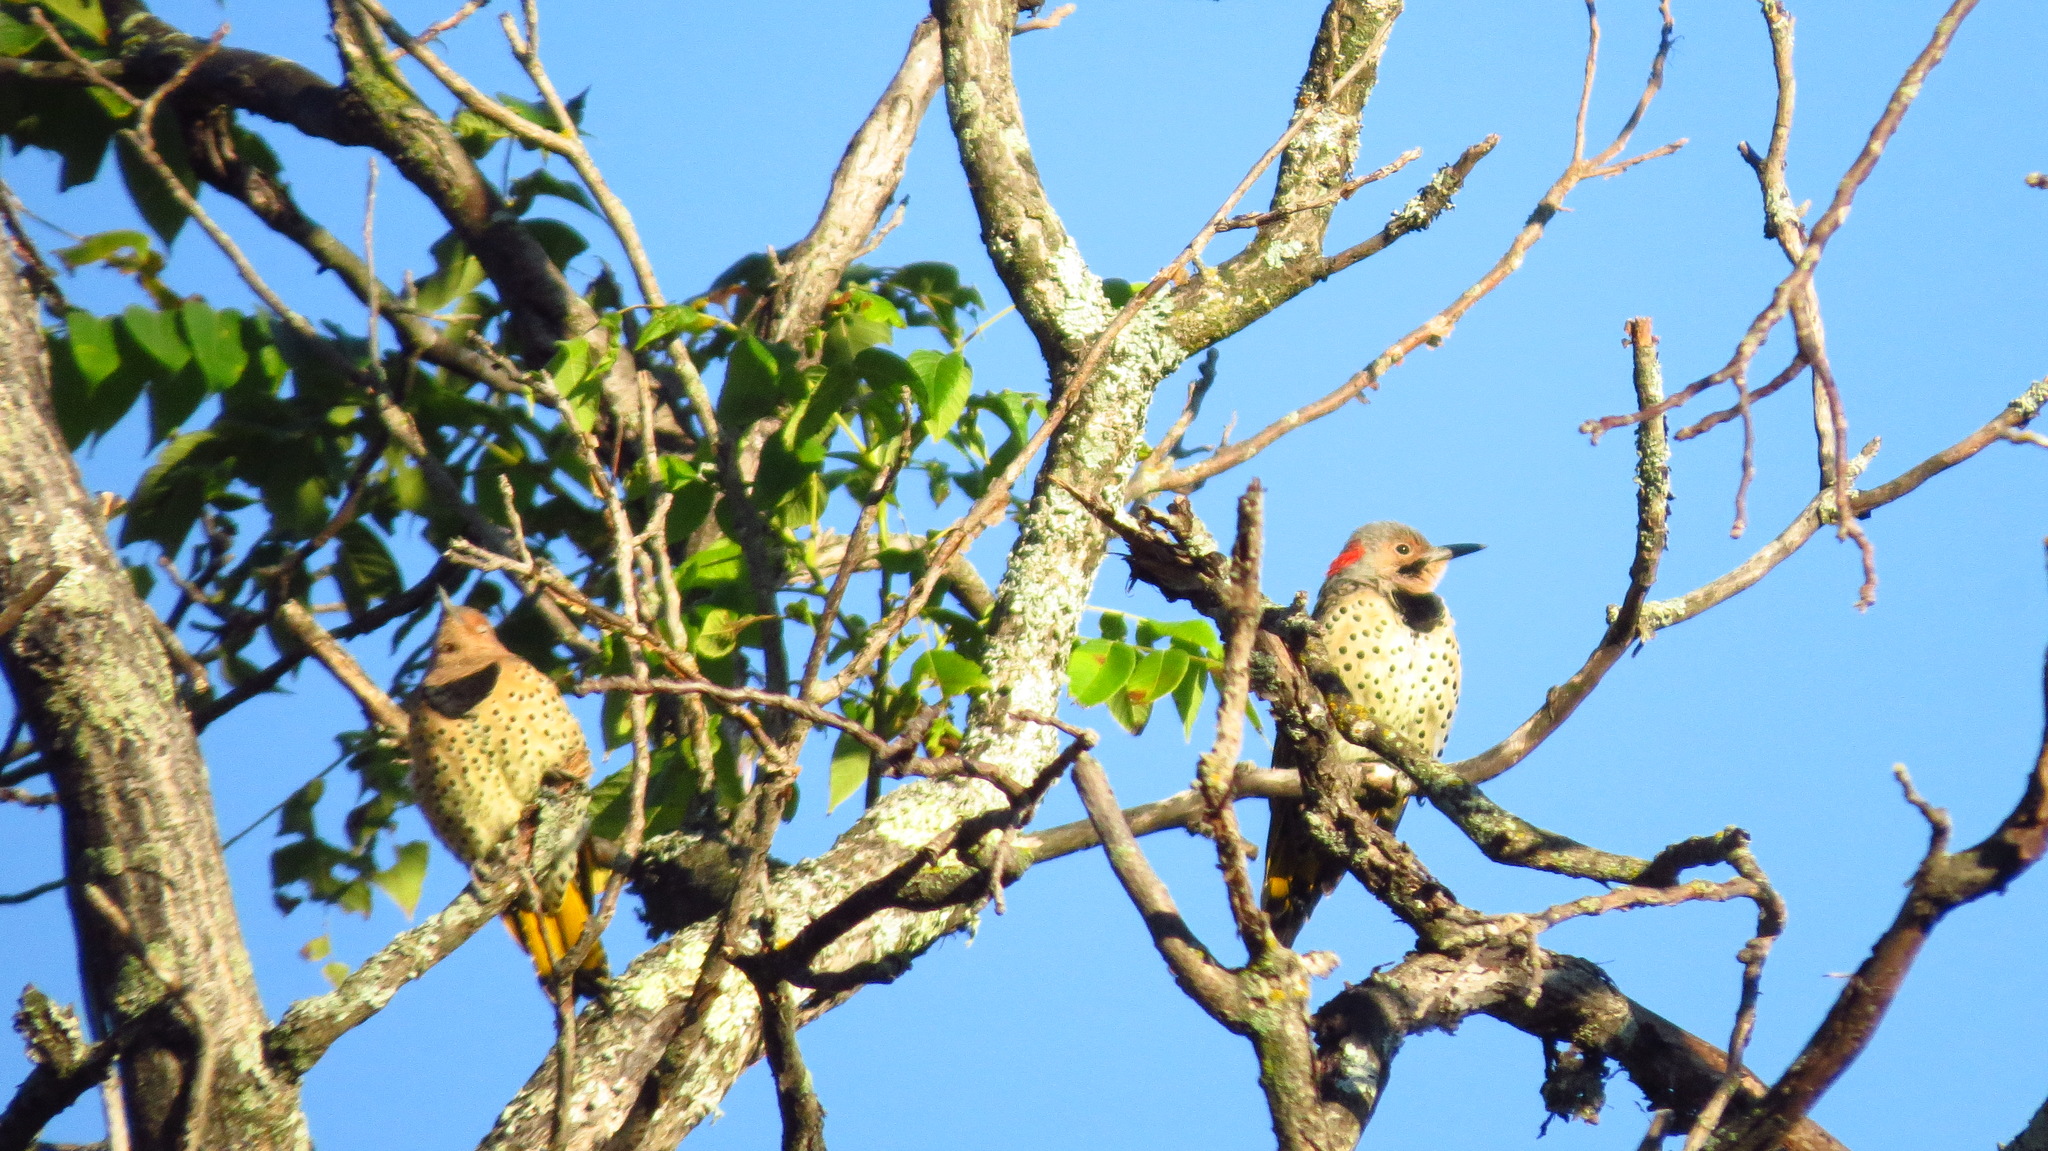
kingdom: Animalia
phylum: Chordata
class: Aves
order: Piciformes
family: Picidae
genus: Colaptes
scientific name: Colaptes auratus
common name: Northern flicker
